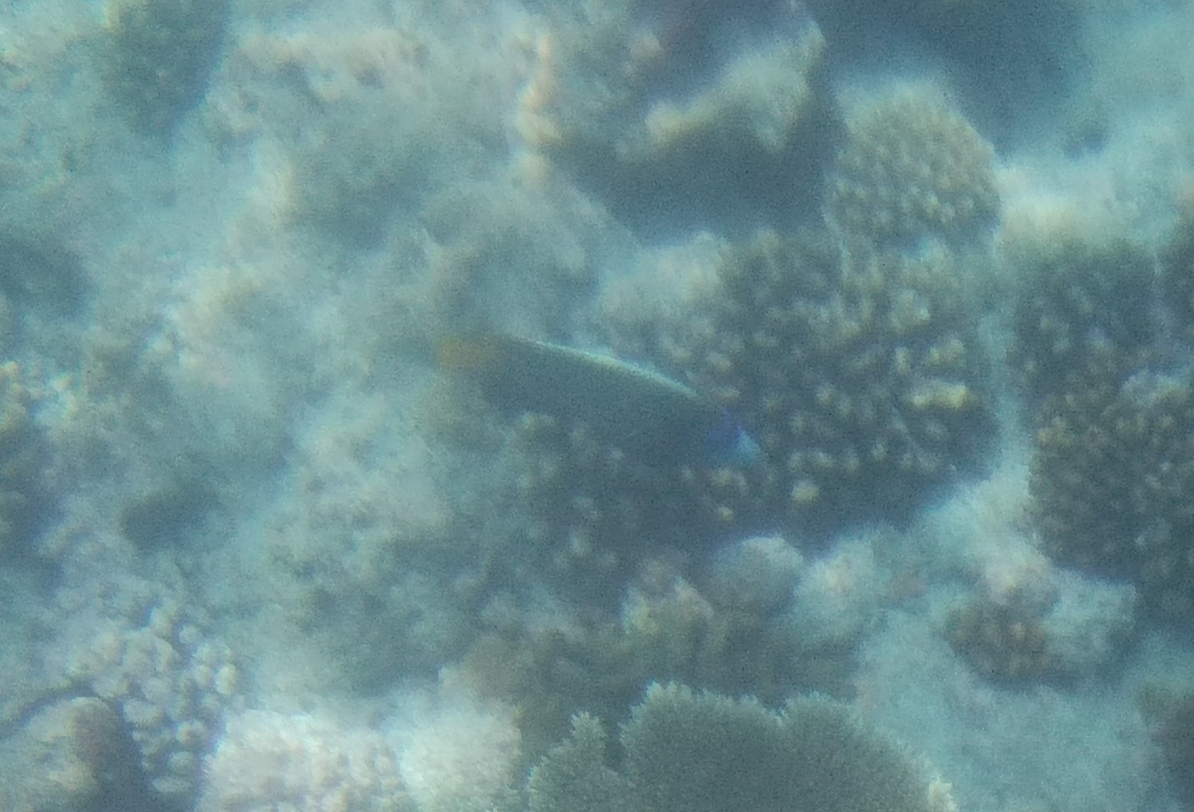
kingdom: Animalia
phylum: Chordata
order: Perciformes
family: Pomacanthidae
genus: Pomacanthus
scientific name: Pomacanthus imperator
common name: Emperor angelfish
